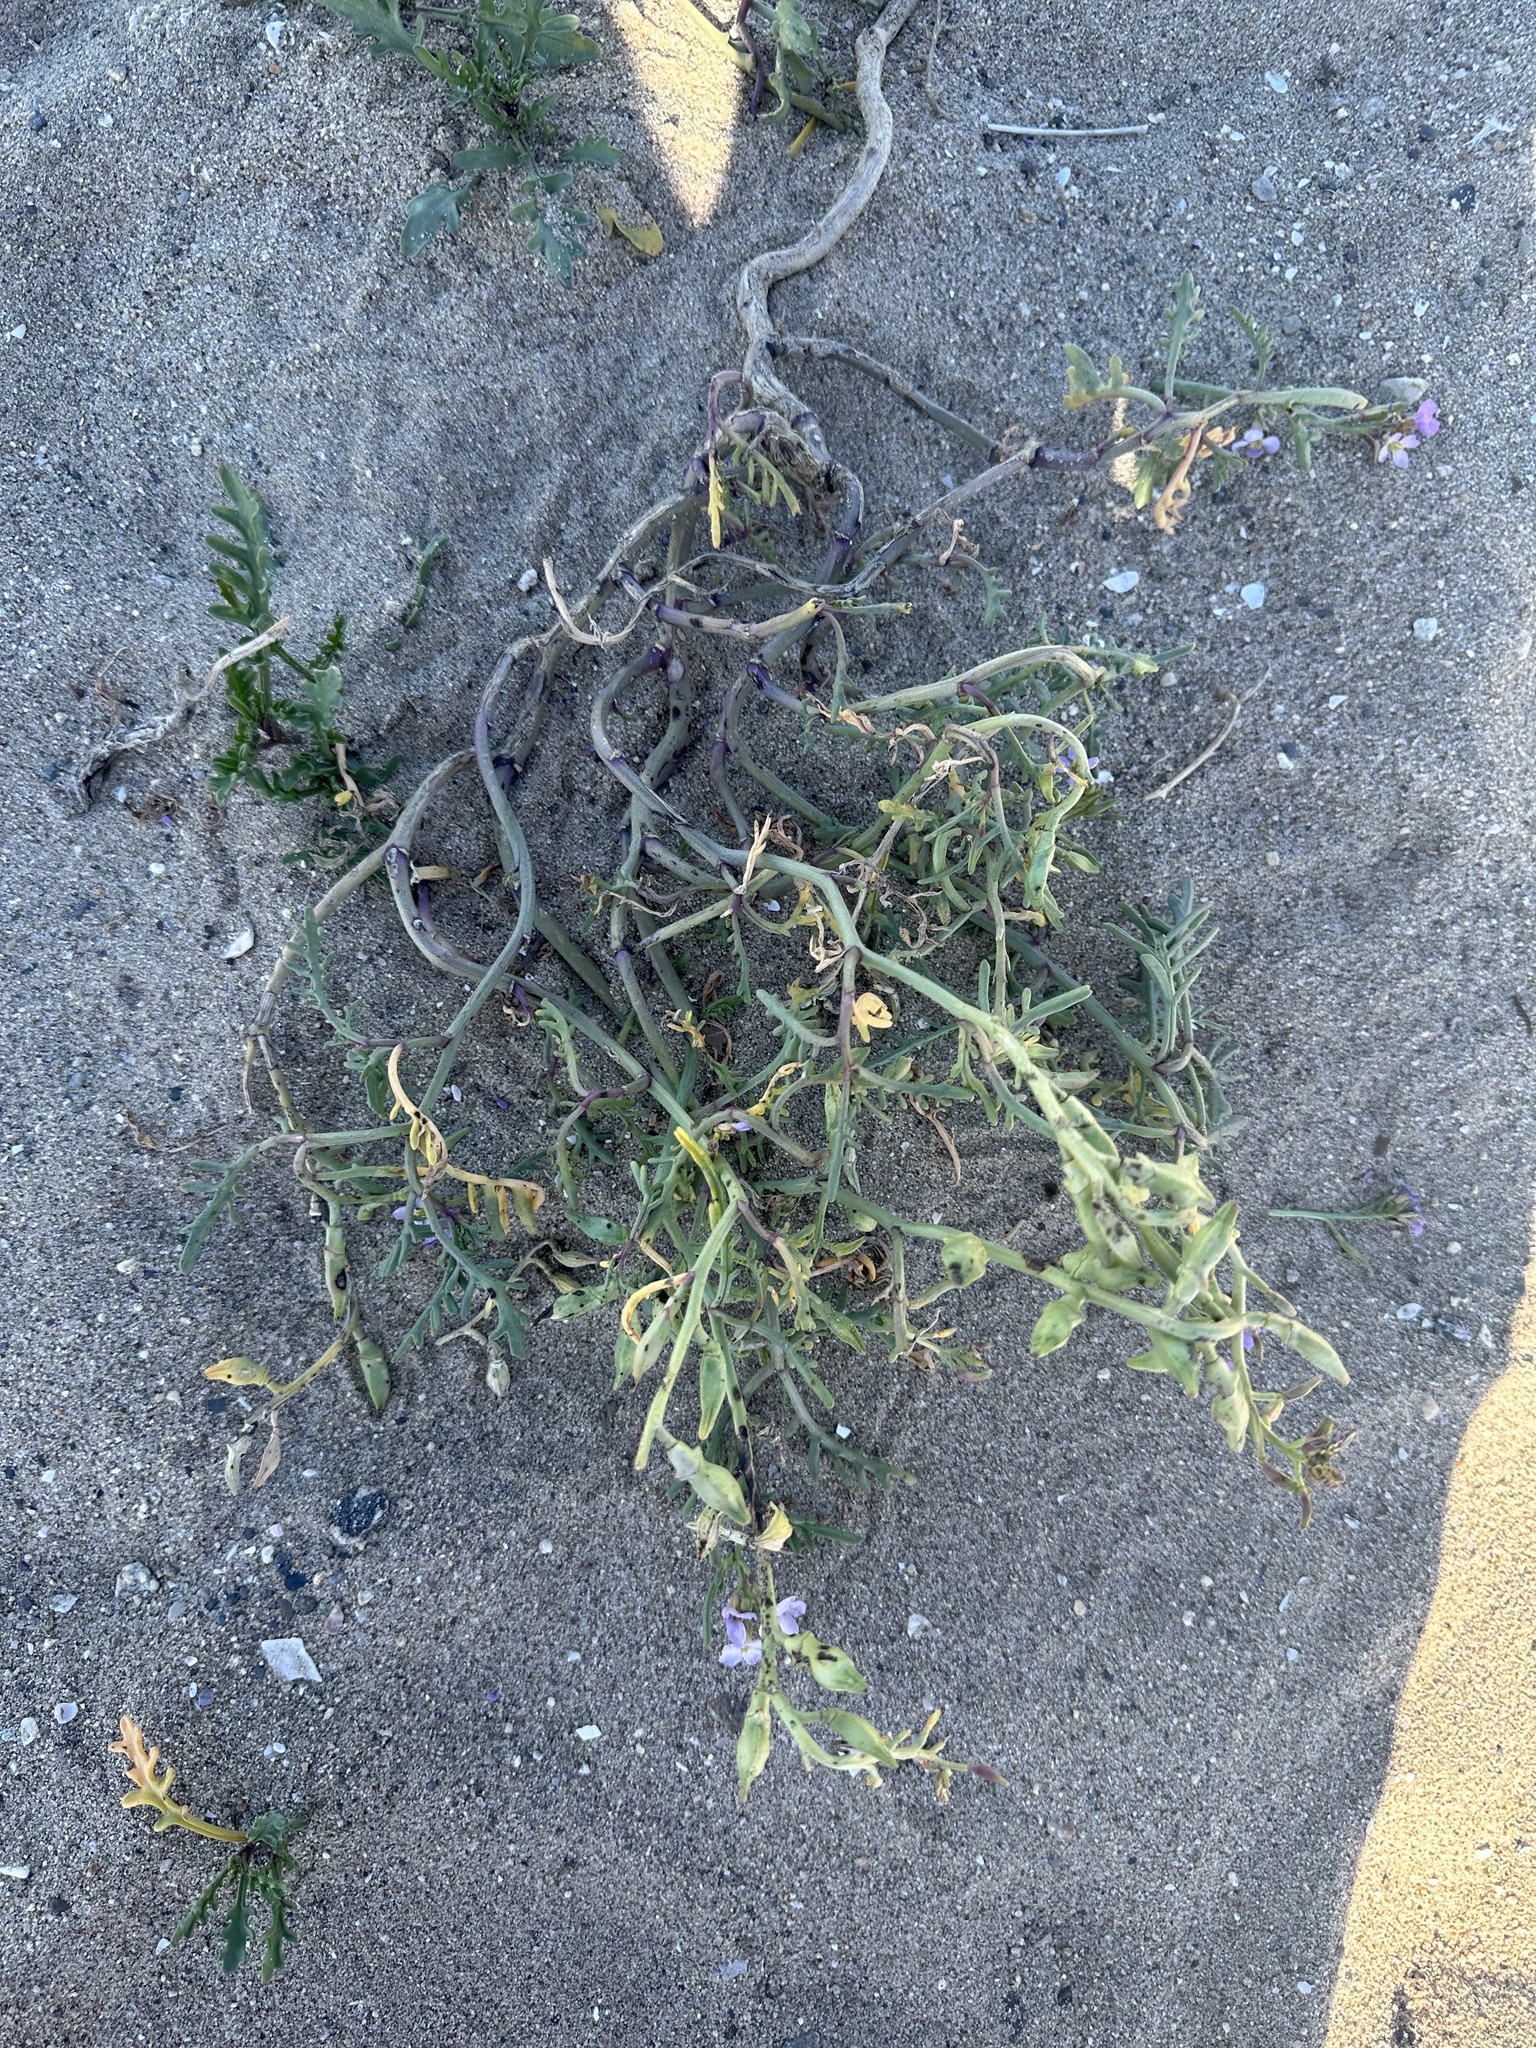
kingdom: Plantae
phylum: Tracheophyta
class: Magnoliopsida
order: Brassicales
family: Brassicaceae
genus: Cakile
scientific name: Cakile maritima
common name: Sea rocket
